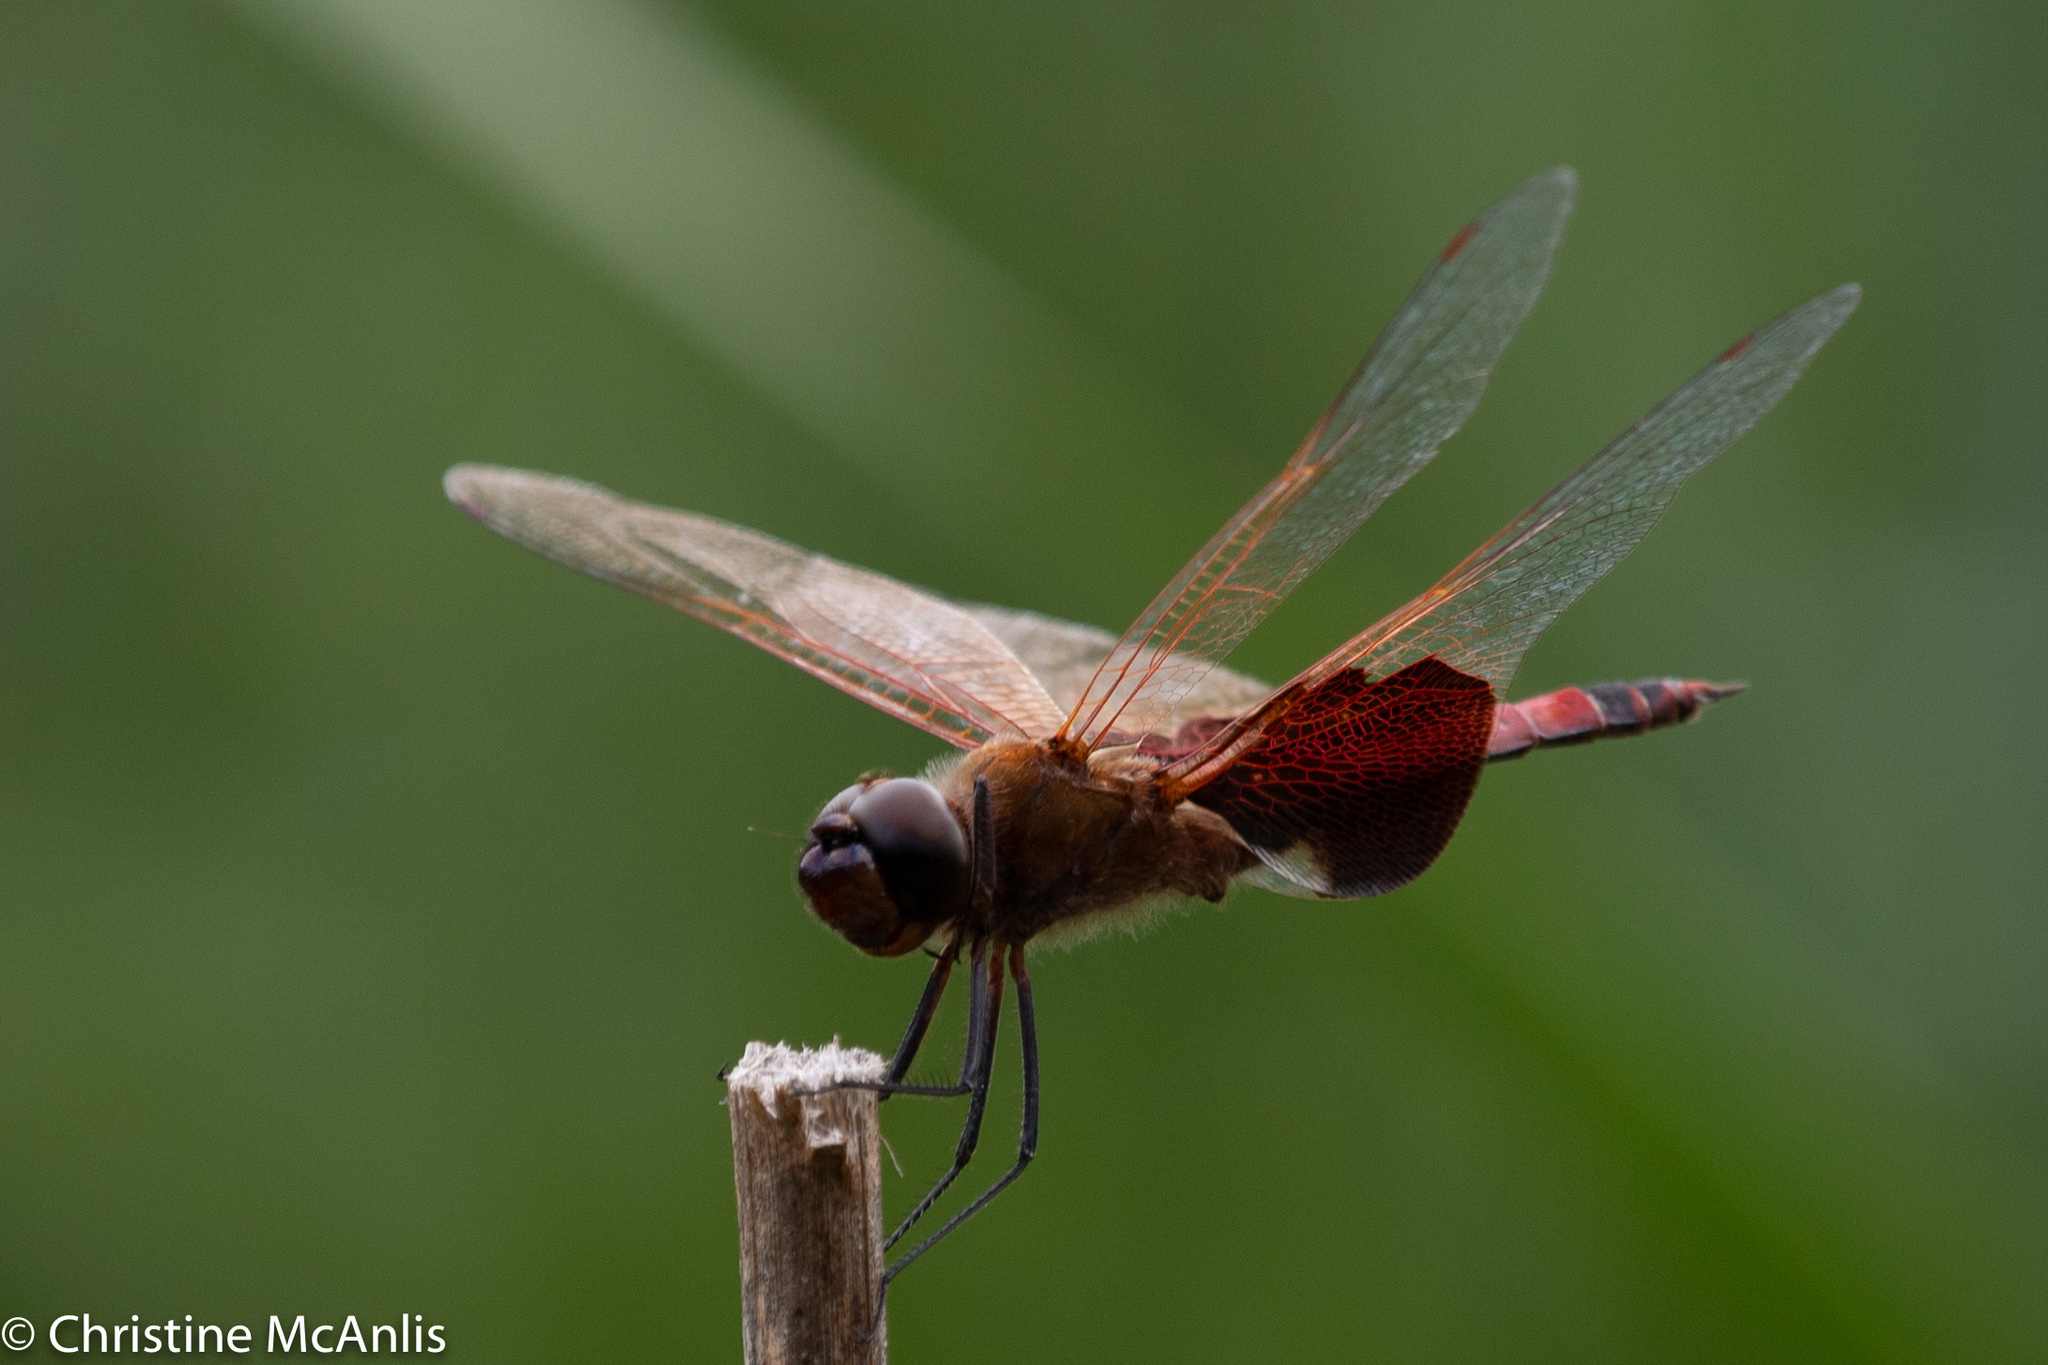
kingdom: Animalia
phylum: Arthropoda
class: Insecta
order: Odonata
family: Libellulidae
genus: Tramea
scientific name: Tramea carolina
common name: Carolina saddlebags
